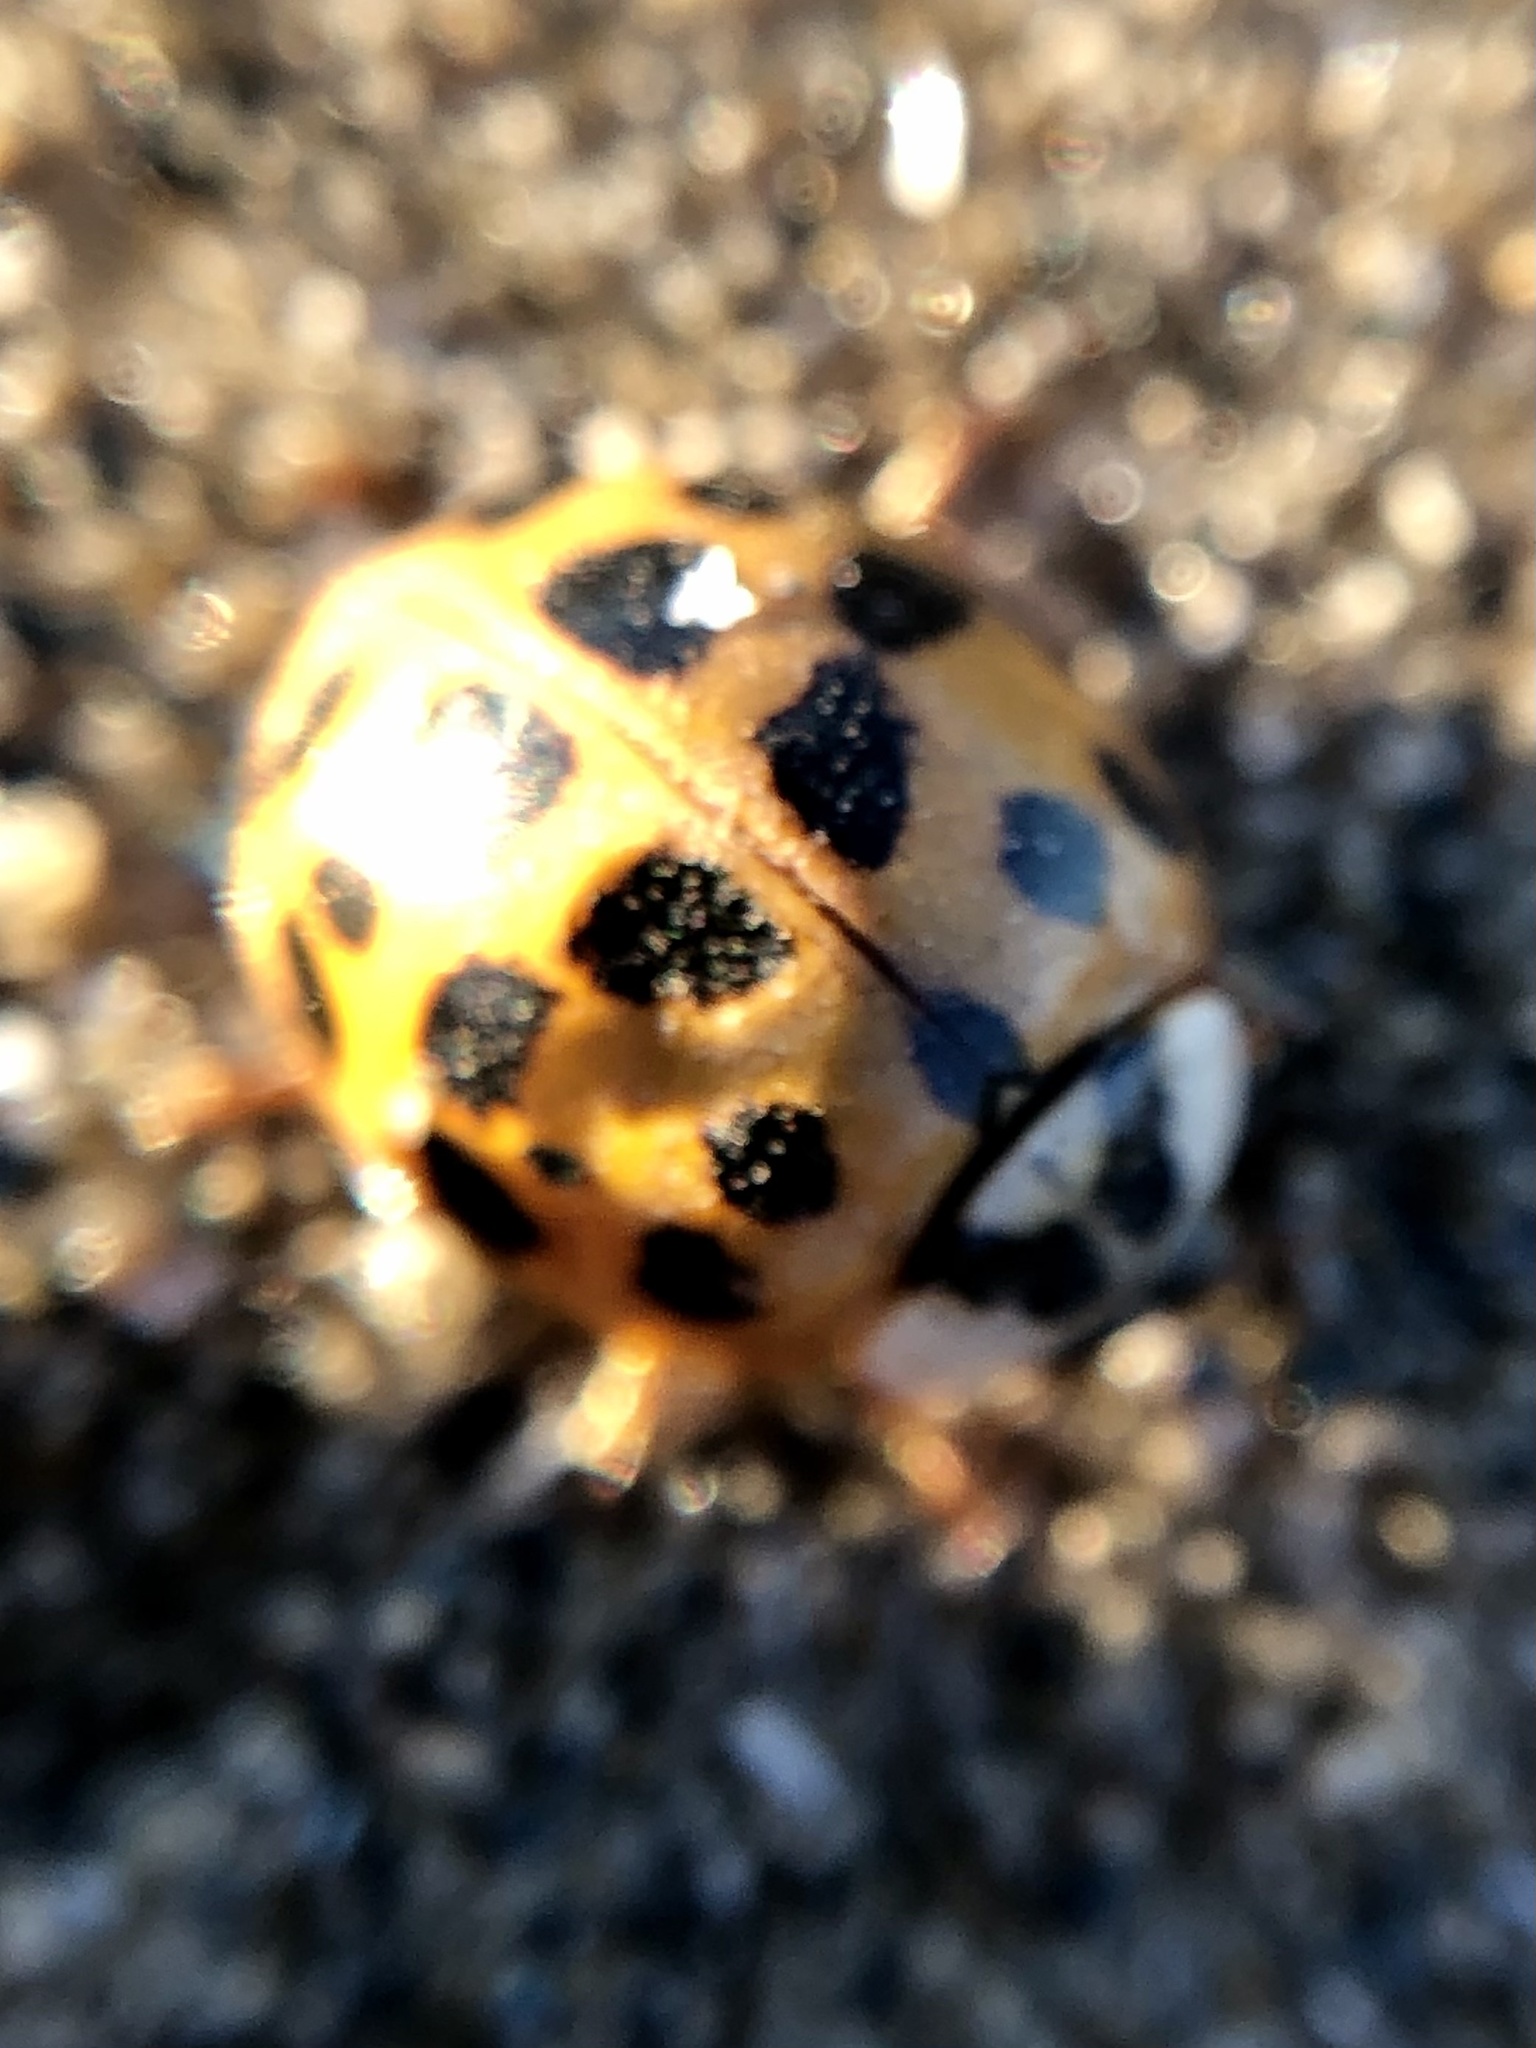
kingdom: Animalia
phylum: Arthropoda
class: Insecta
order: Coleoptera
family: Coccinellidae
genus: Harmonia
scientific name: Harmonia axyridis
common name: Harlequin ladybird
